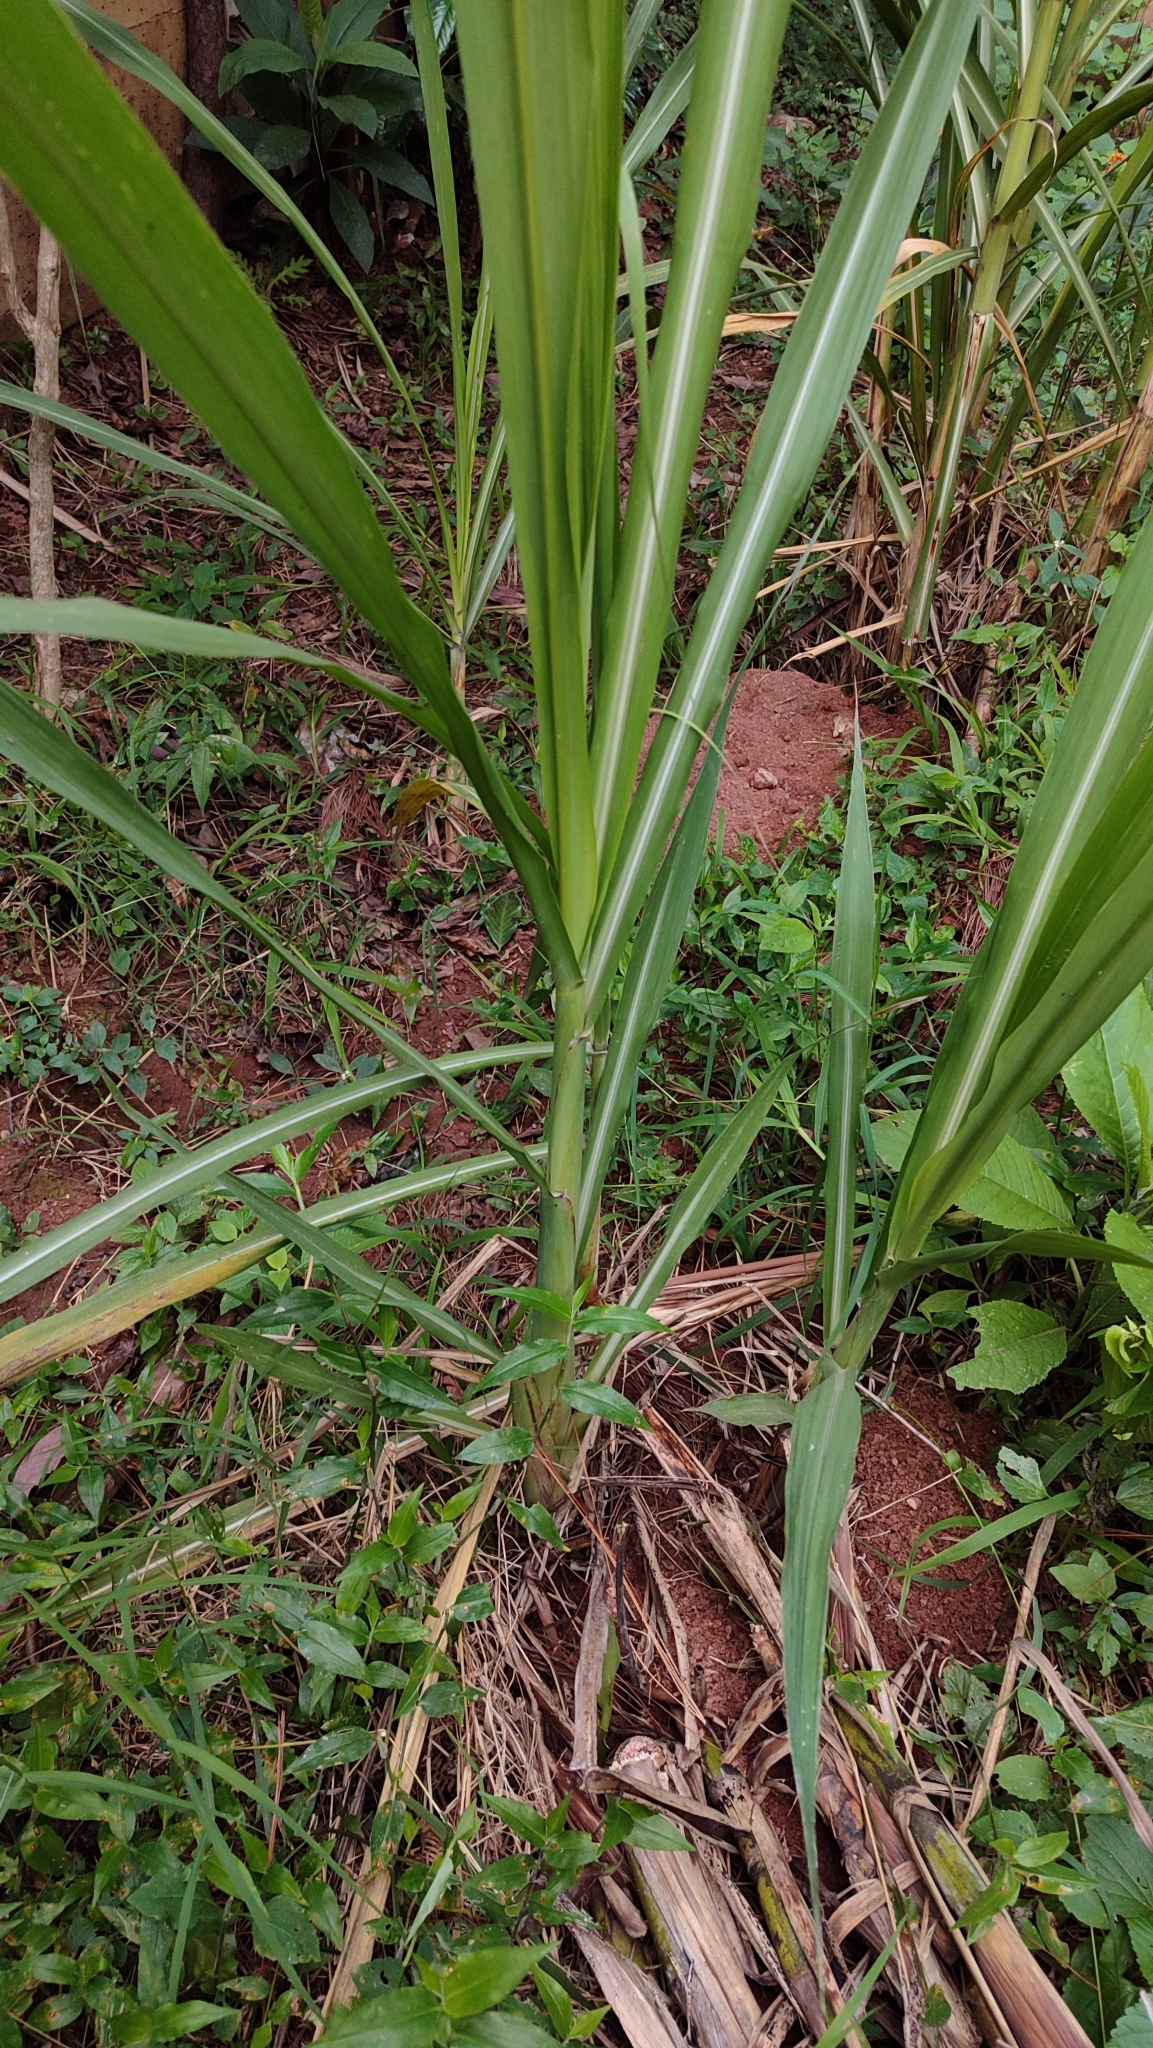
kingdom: Plantae
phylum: Tracheophyta
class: Liliopsida
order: Poales
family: Poaceae
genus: Saccharum
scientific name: Saccharum officinarum
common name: Sugarcane
